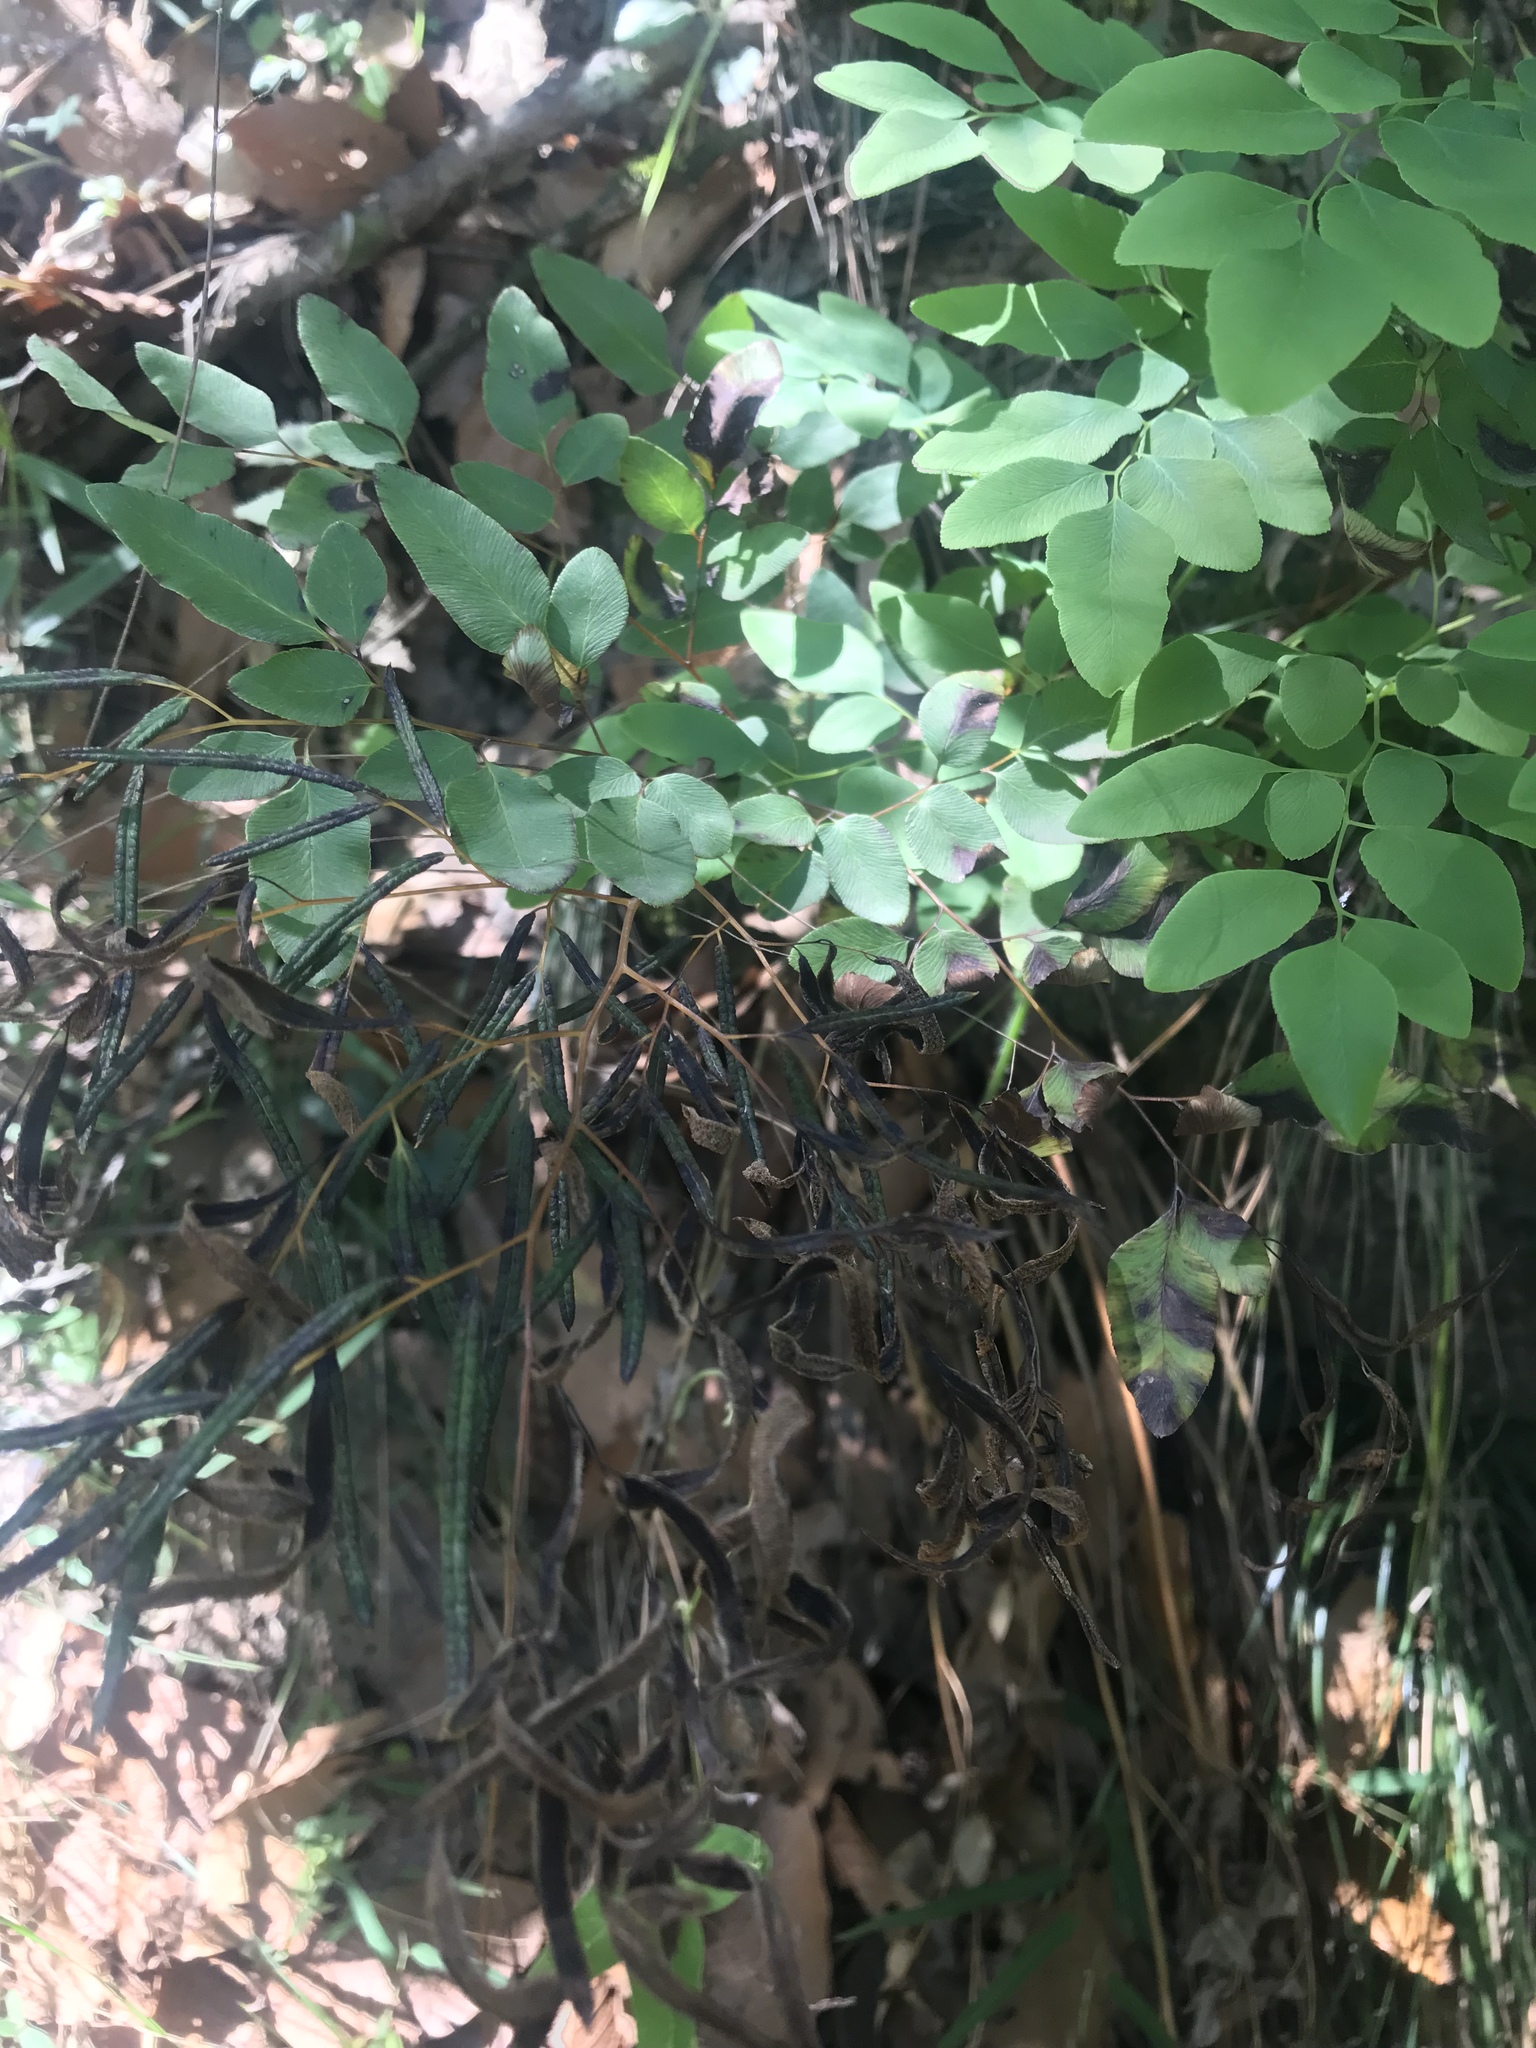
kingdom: Plantae
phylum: Tracheophyta
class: Polypodiopsida
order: Polypodiales
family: Pteridaceae
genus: Llavea
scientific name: Llavea cordifolia
